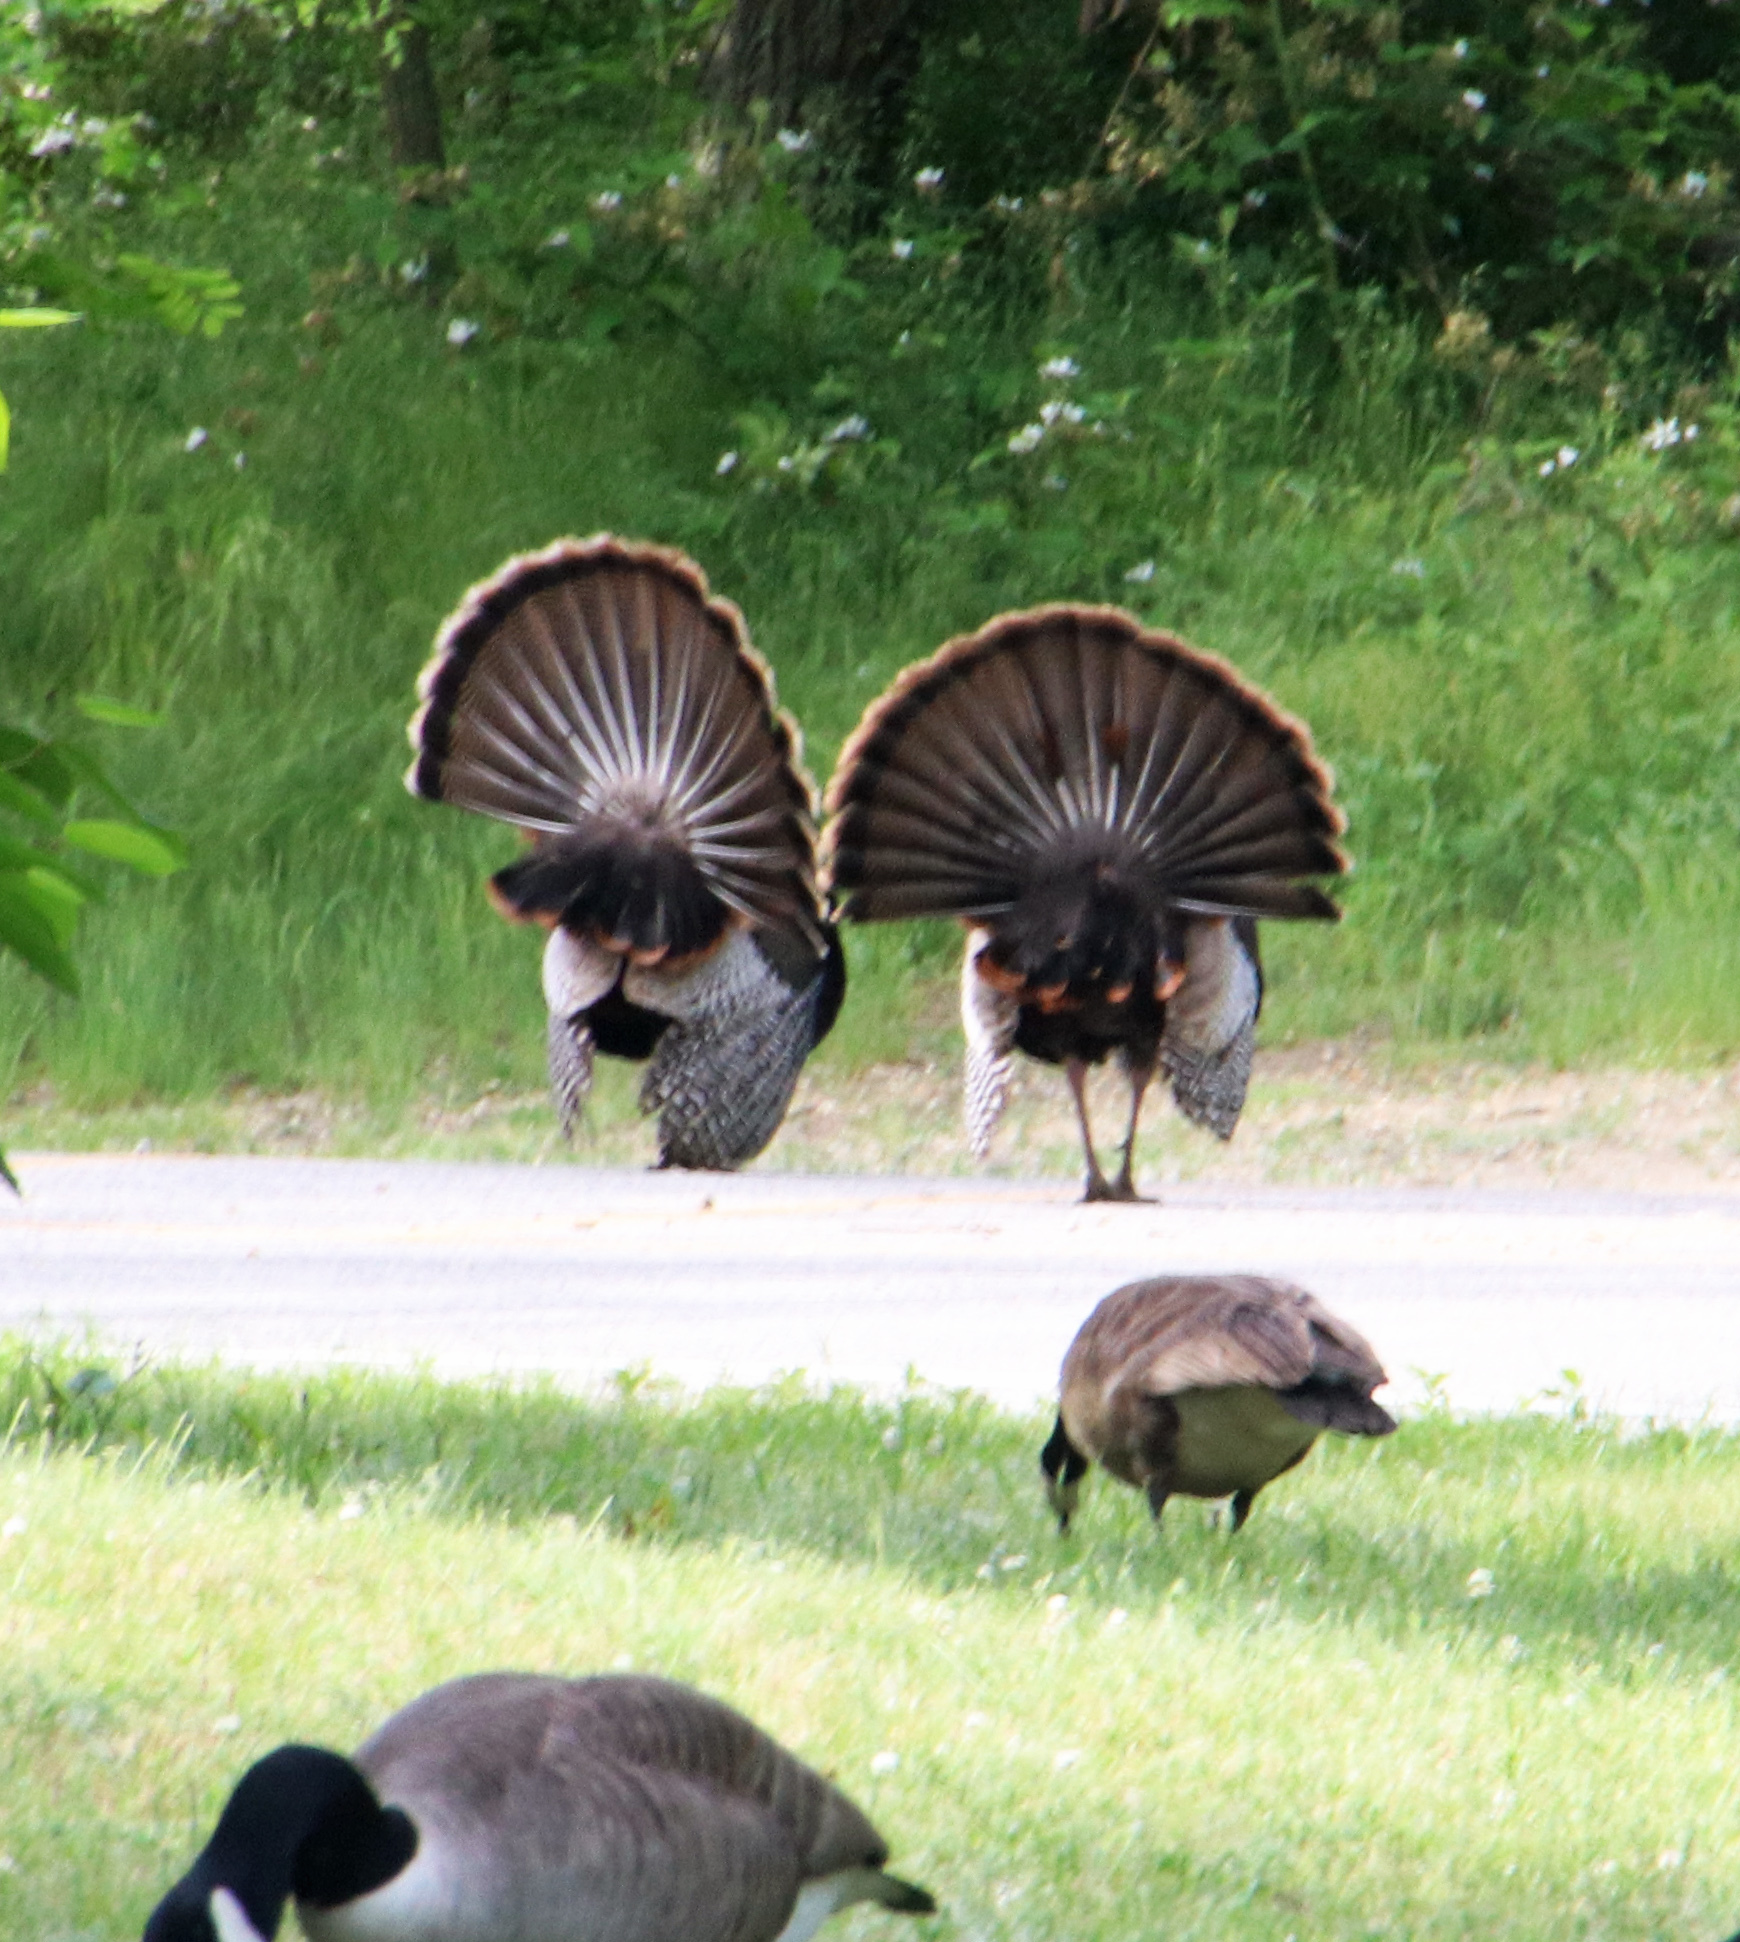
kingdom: Animalia
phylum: Chordata
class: Aves
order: Galliformes
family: Phasianidae
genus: Meleagris
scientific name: Meleagris gallopavo
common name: Wild turkey
